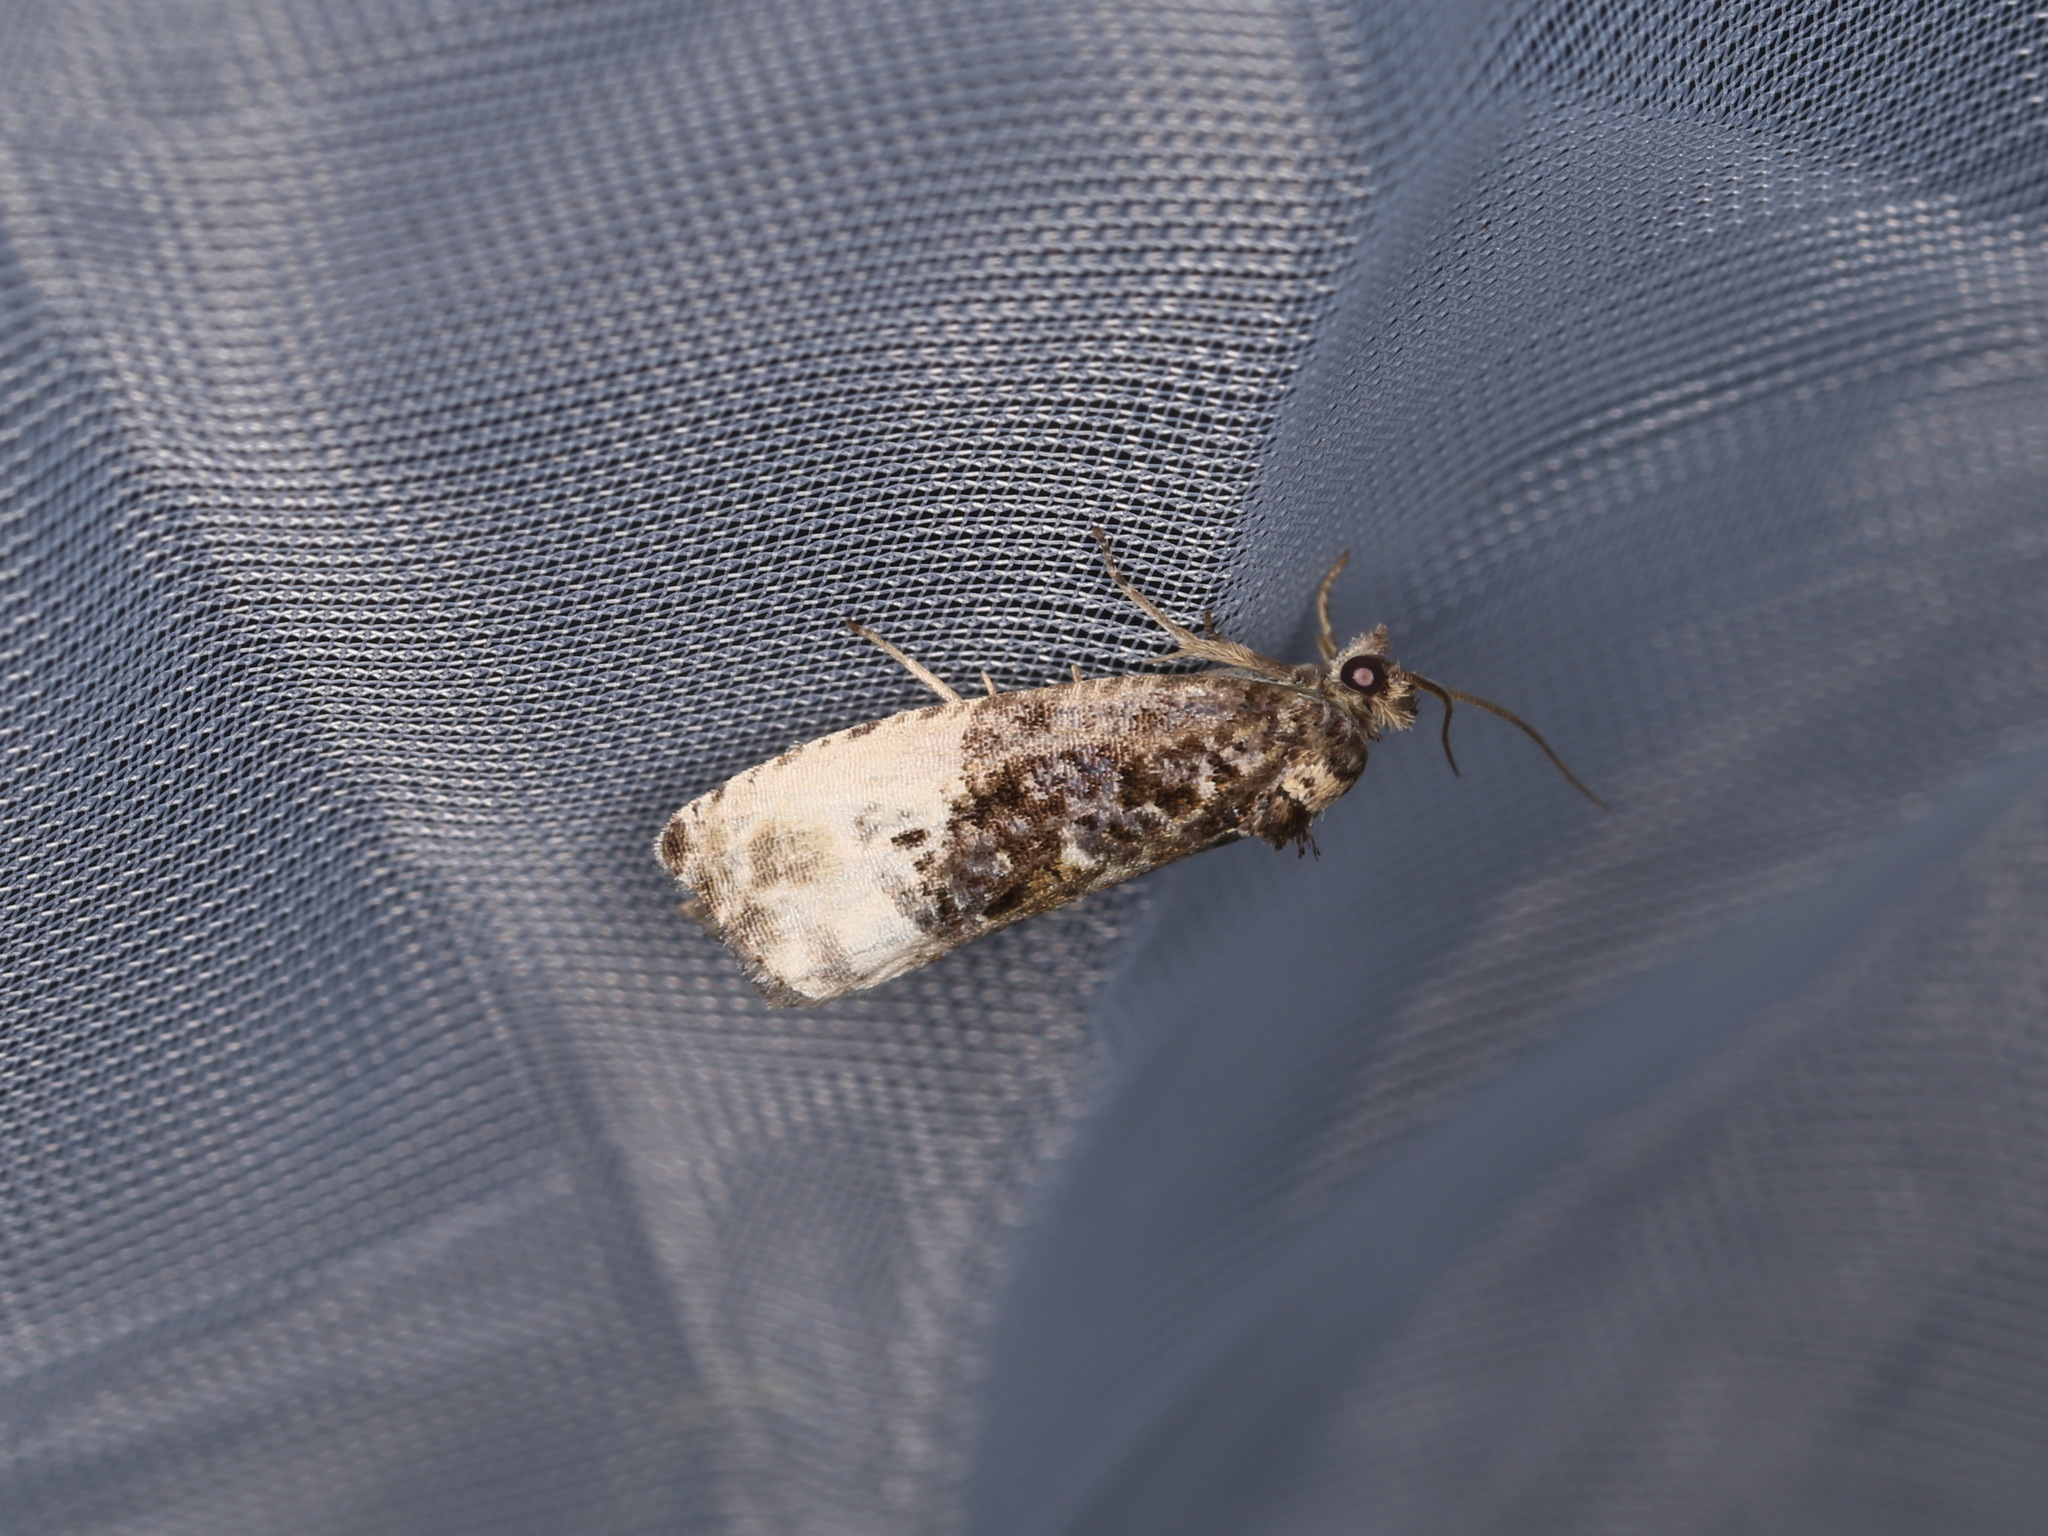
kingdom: Animalia
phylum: Arthropoda
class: Insecta
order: Lepidoptera
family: Tortricidae
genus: Hedya
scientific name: Hedya nubiferana
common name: Marbled orchard tortrix
